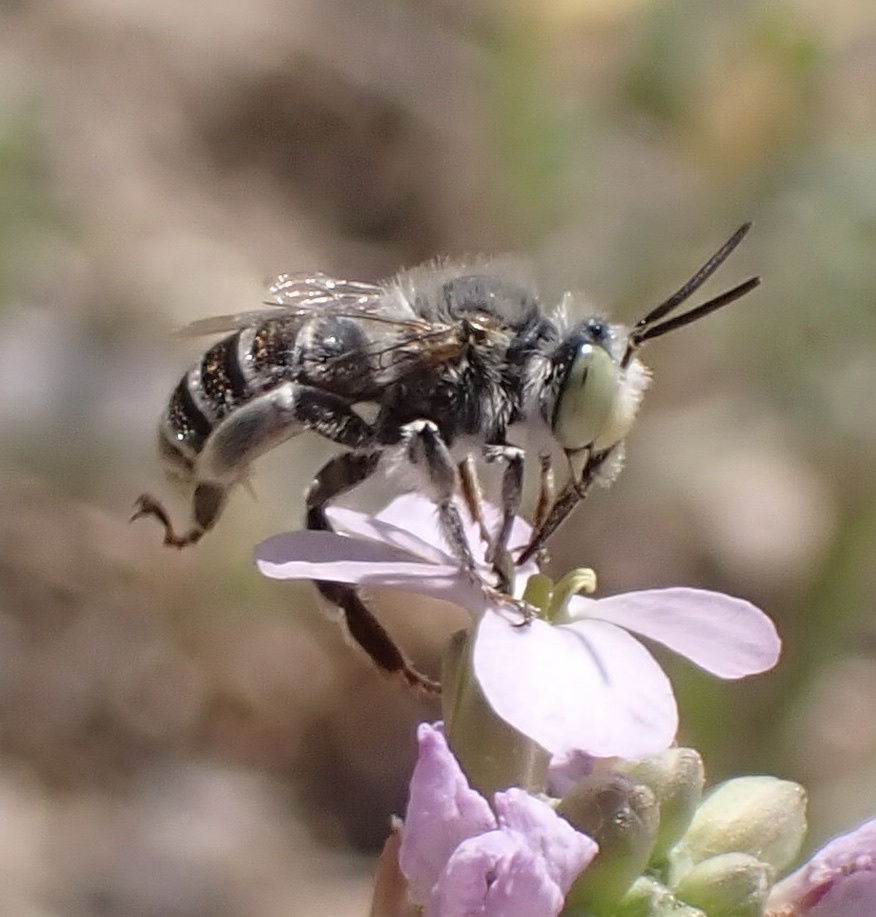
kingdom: Animalia
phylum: Arthropoda
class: Insecta
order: Hymenoptera
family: Apidae
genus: Anthophora
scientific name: Anthophora bimaculata
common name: Green-eyed flower bee
